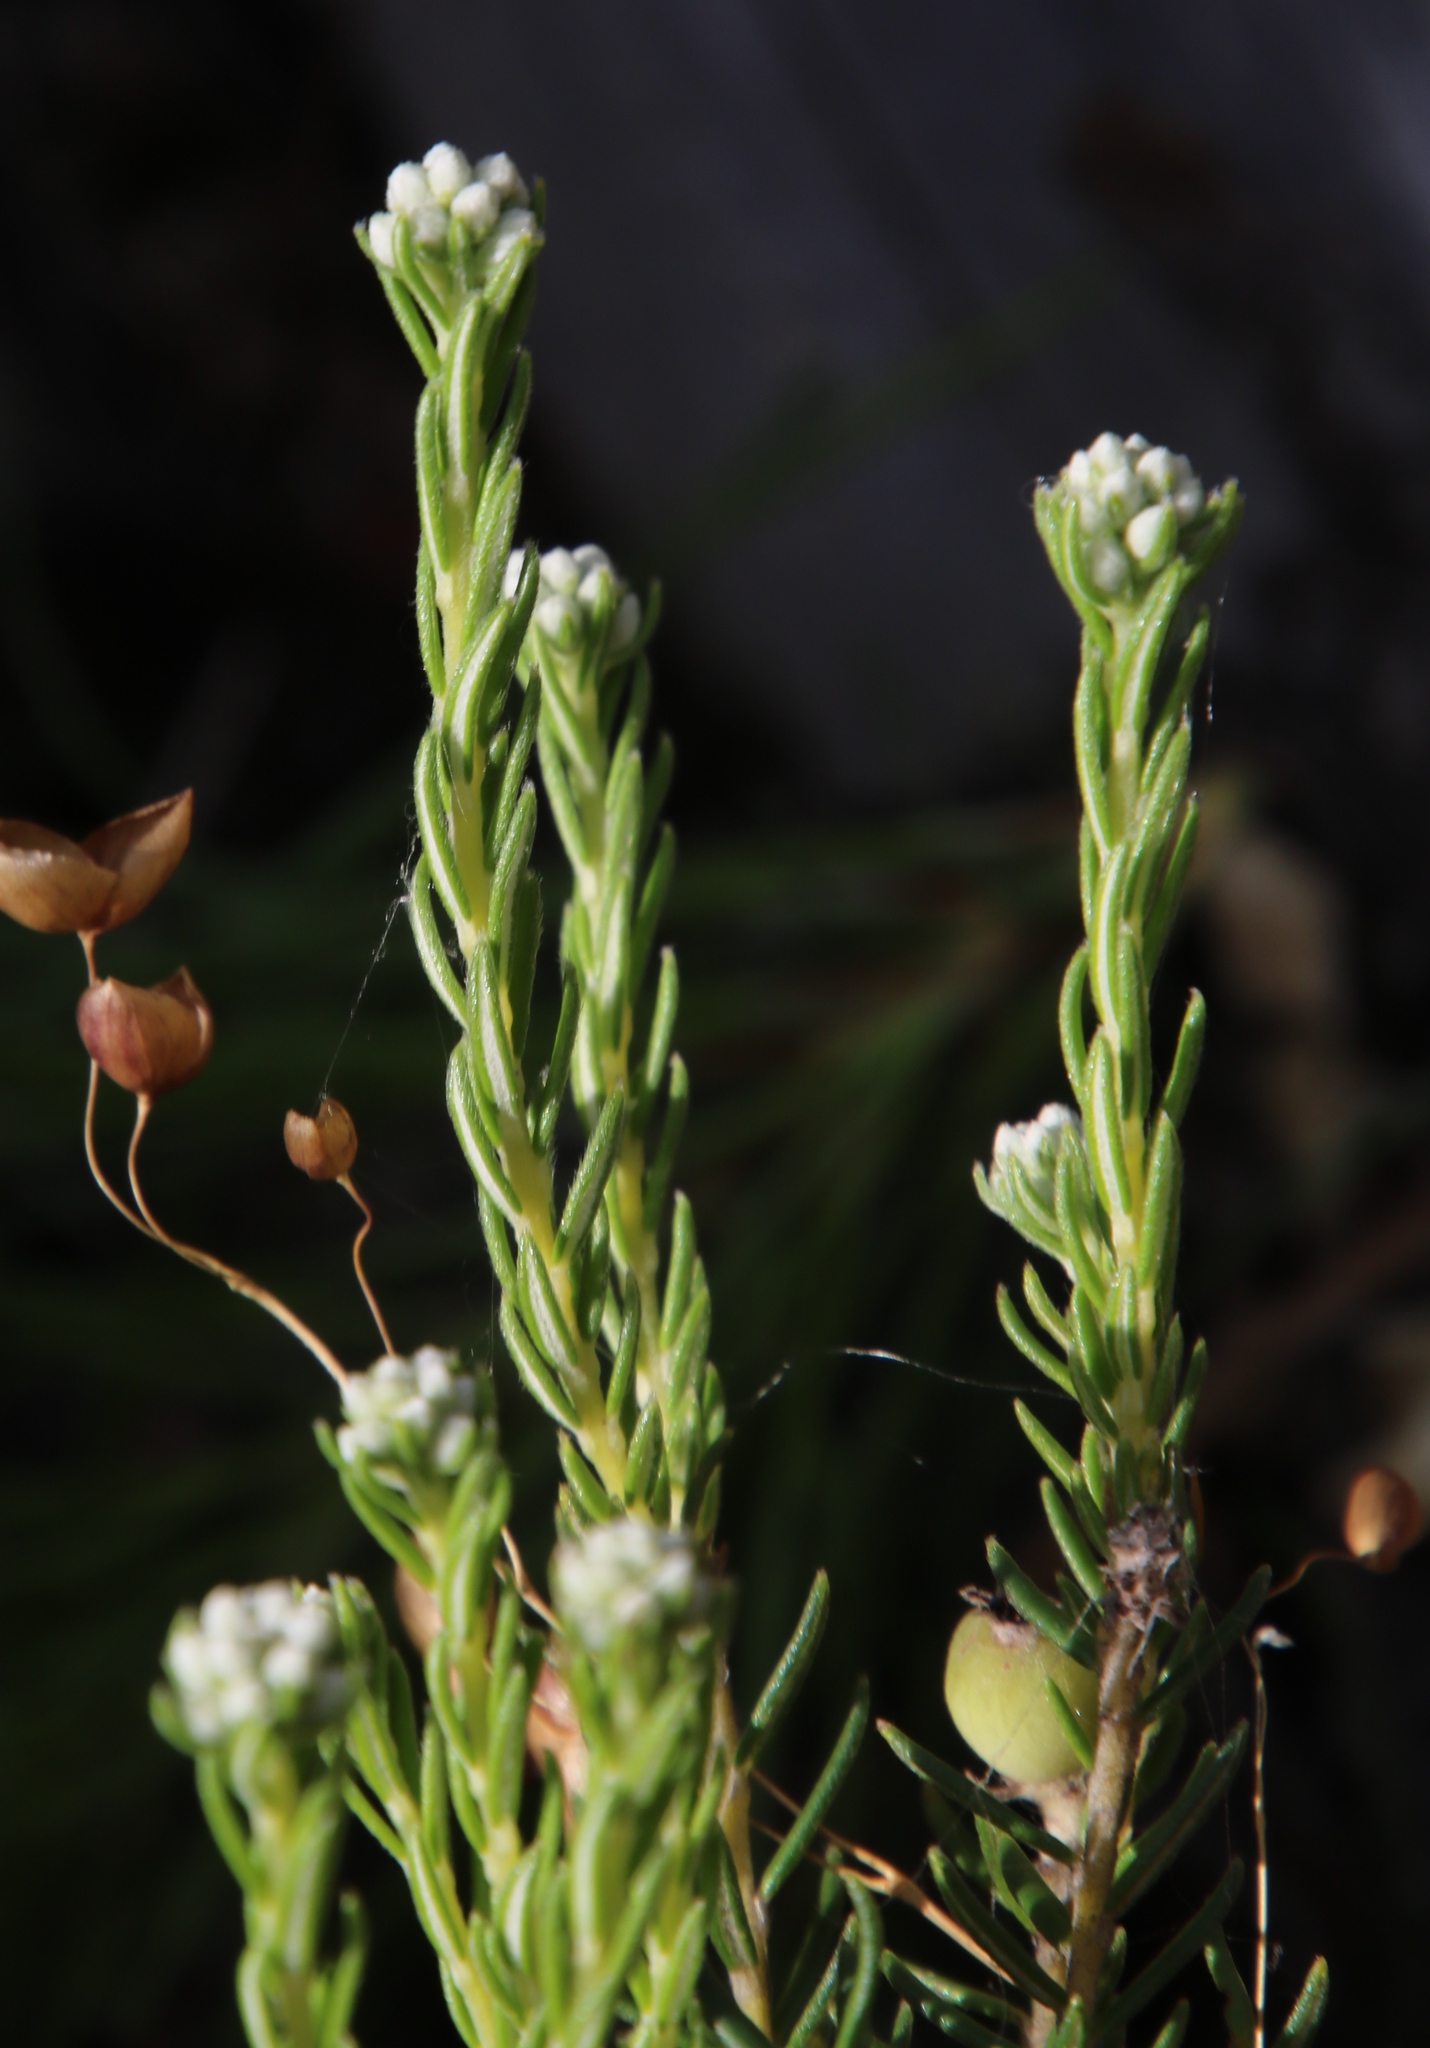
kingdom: Plantae
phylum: Tracheophyta
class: Magnoliopsida
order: Rosales
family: Rhamnaceae
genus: Phylica
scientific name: Phylica imberbis
